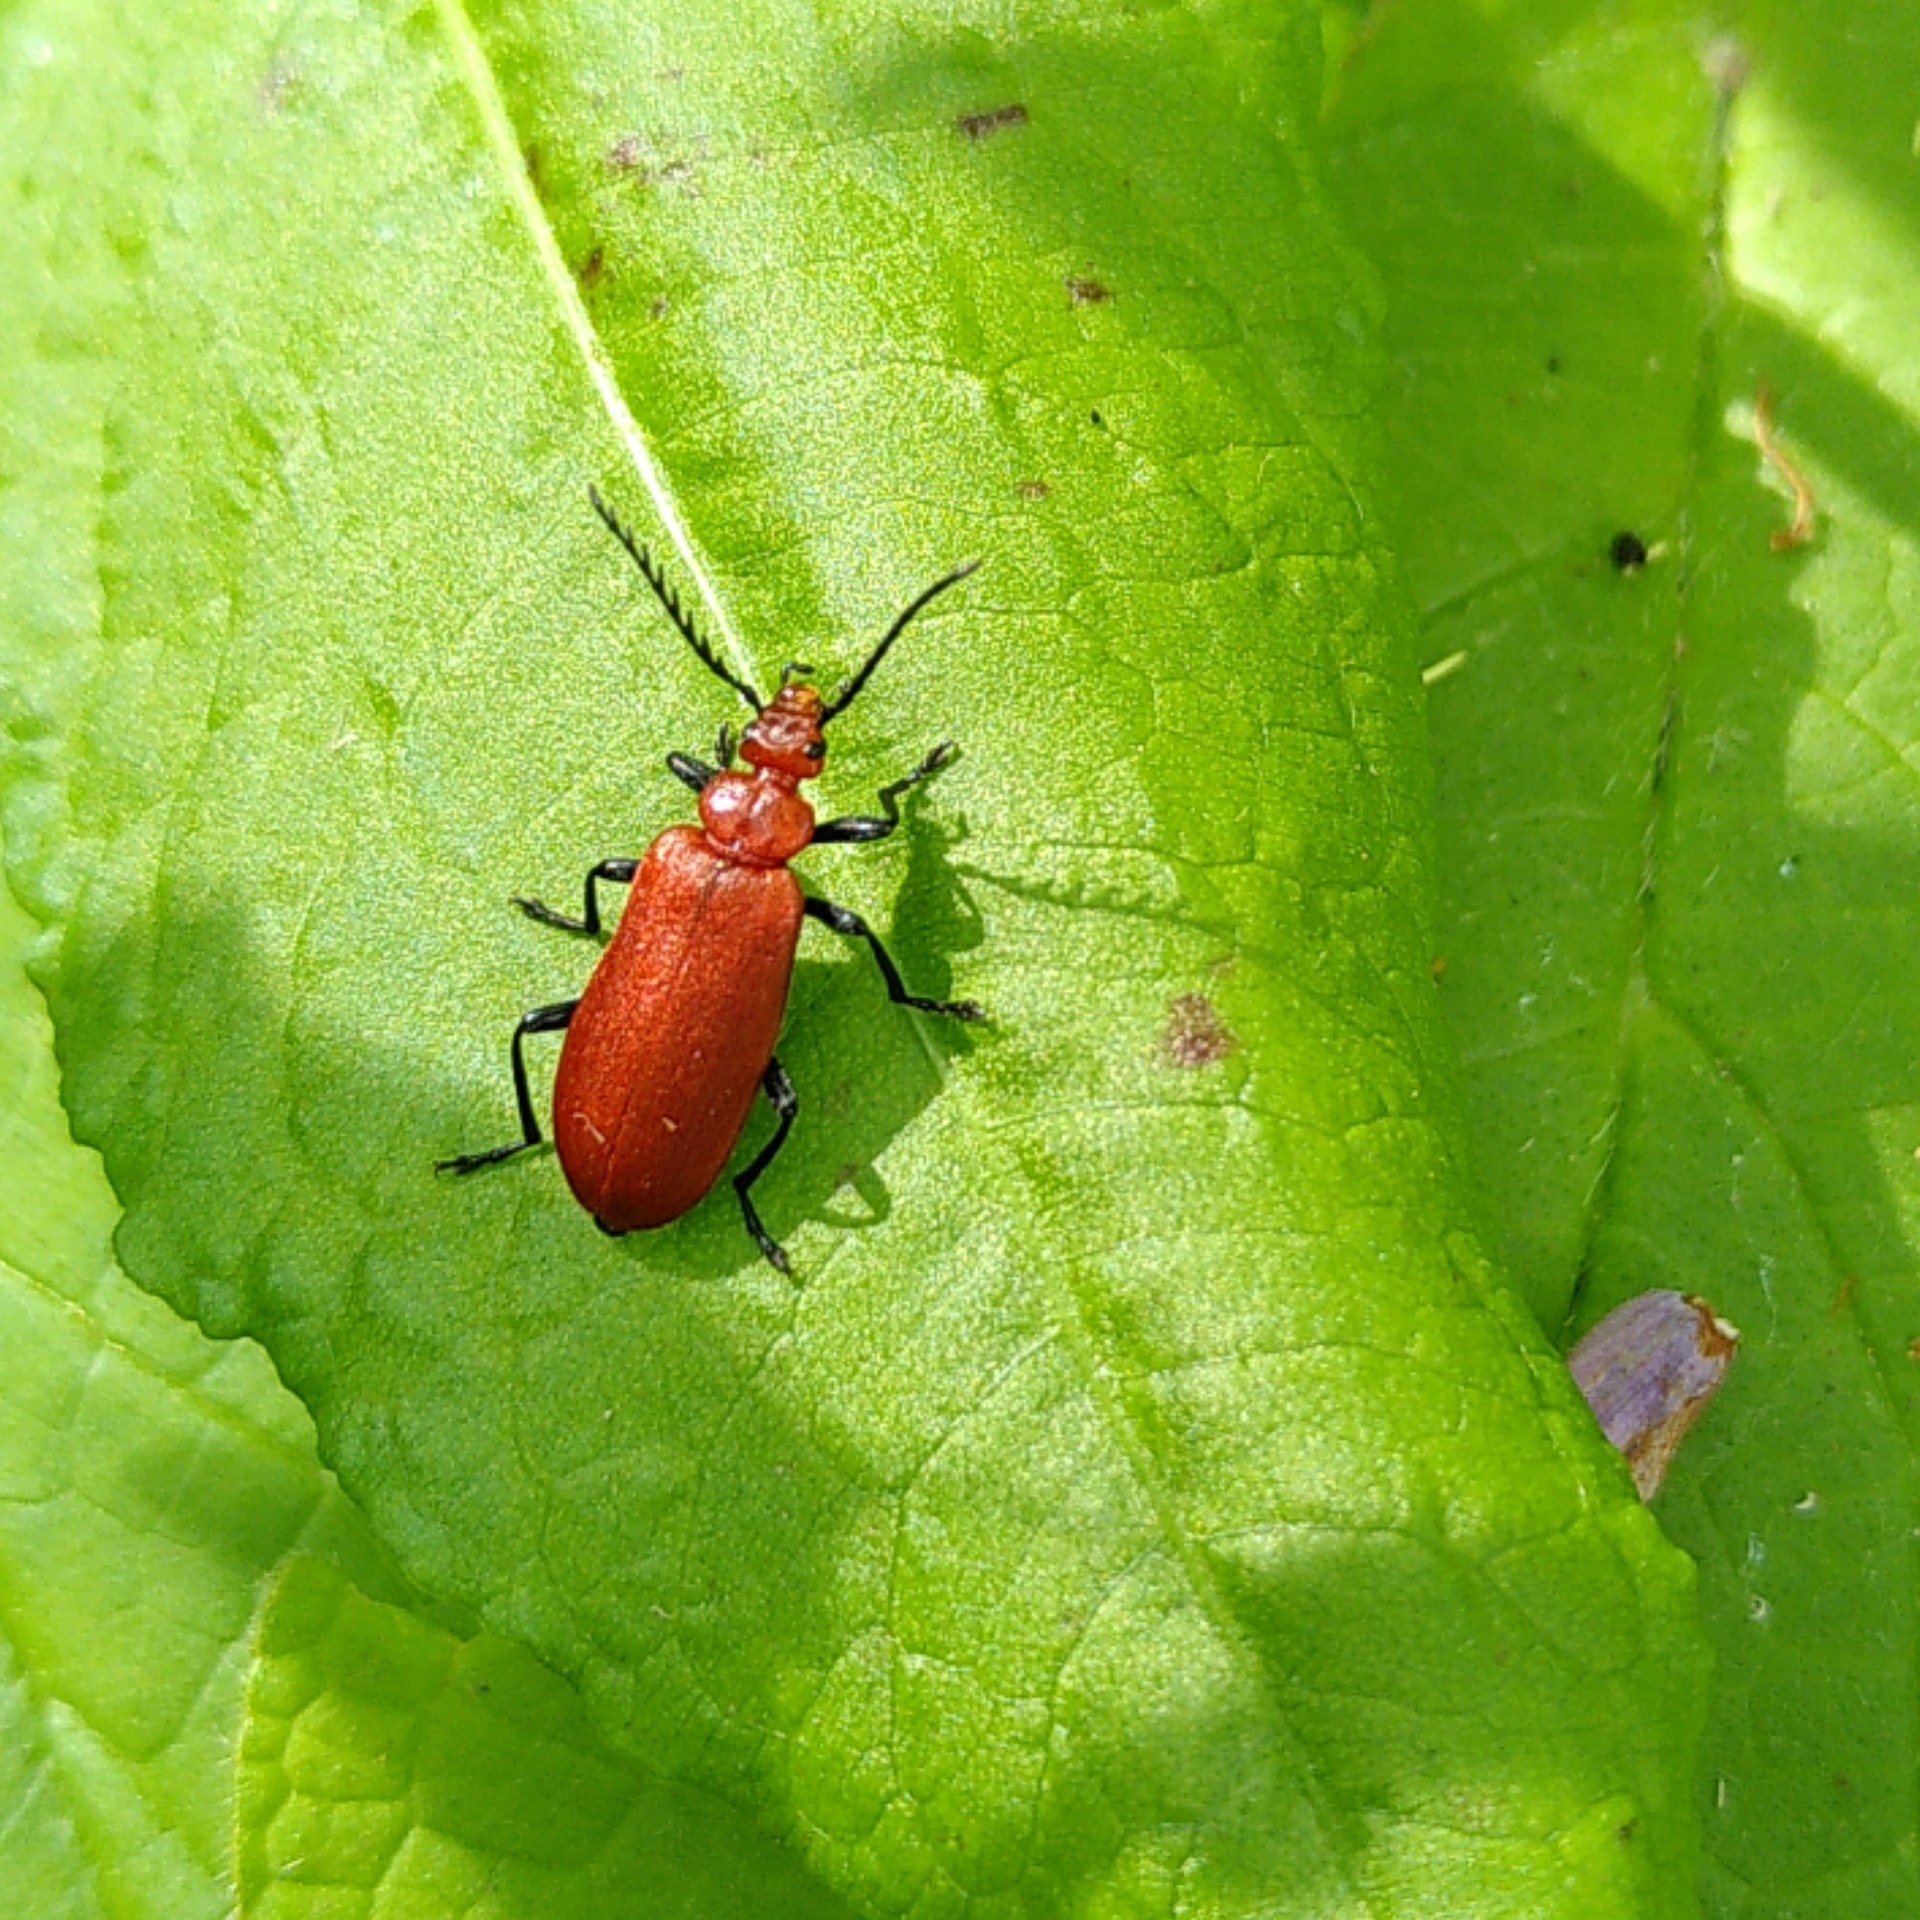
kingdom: Animalia
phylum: Arthropoda
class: Insecta
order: Coleoptera
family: Pyrochroidae
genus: Pyrochroa
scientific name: Pyrochroa serraticornis
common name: Red-headed cardinal beetle
